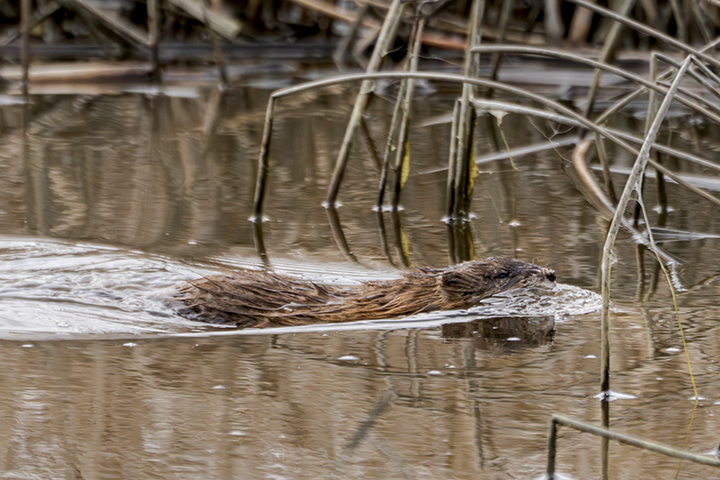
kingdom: Animalia
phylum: Chordata
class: Mammalia
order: Rodentia
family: Cricetidae
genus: Ondatra
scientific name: Ondatra zibethicus
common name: Muskrat
